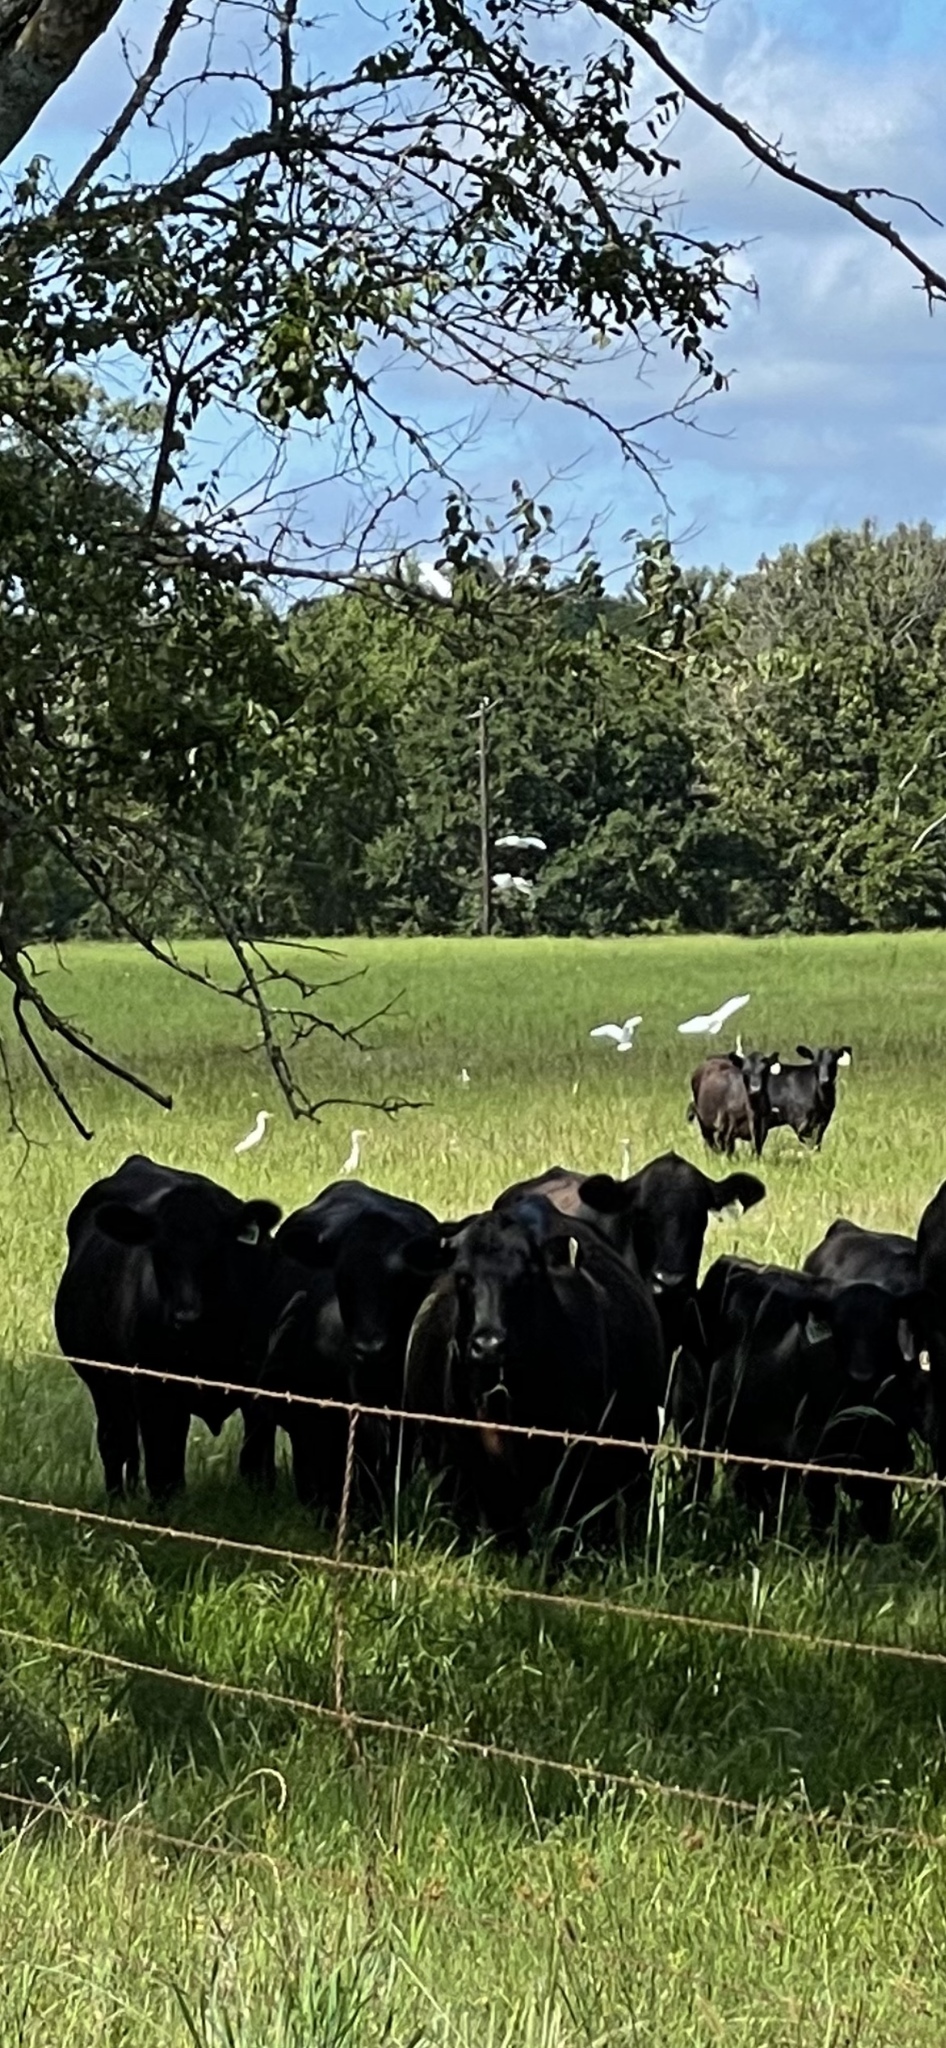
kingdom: Animalia
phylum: Chordata
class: Aves
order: Pelecaniformes
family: Ardeidae
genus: Bubulcus
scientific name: Bubulcus ibis
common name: Cattle egret
